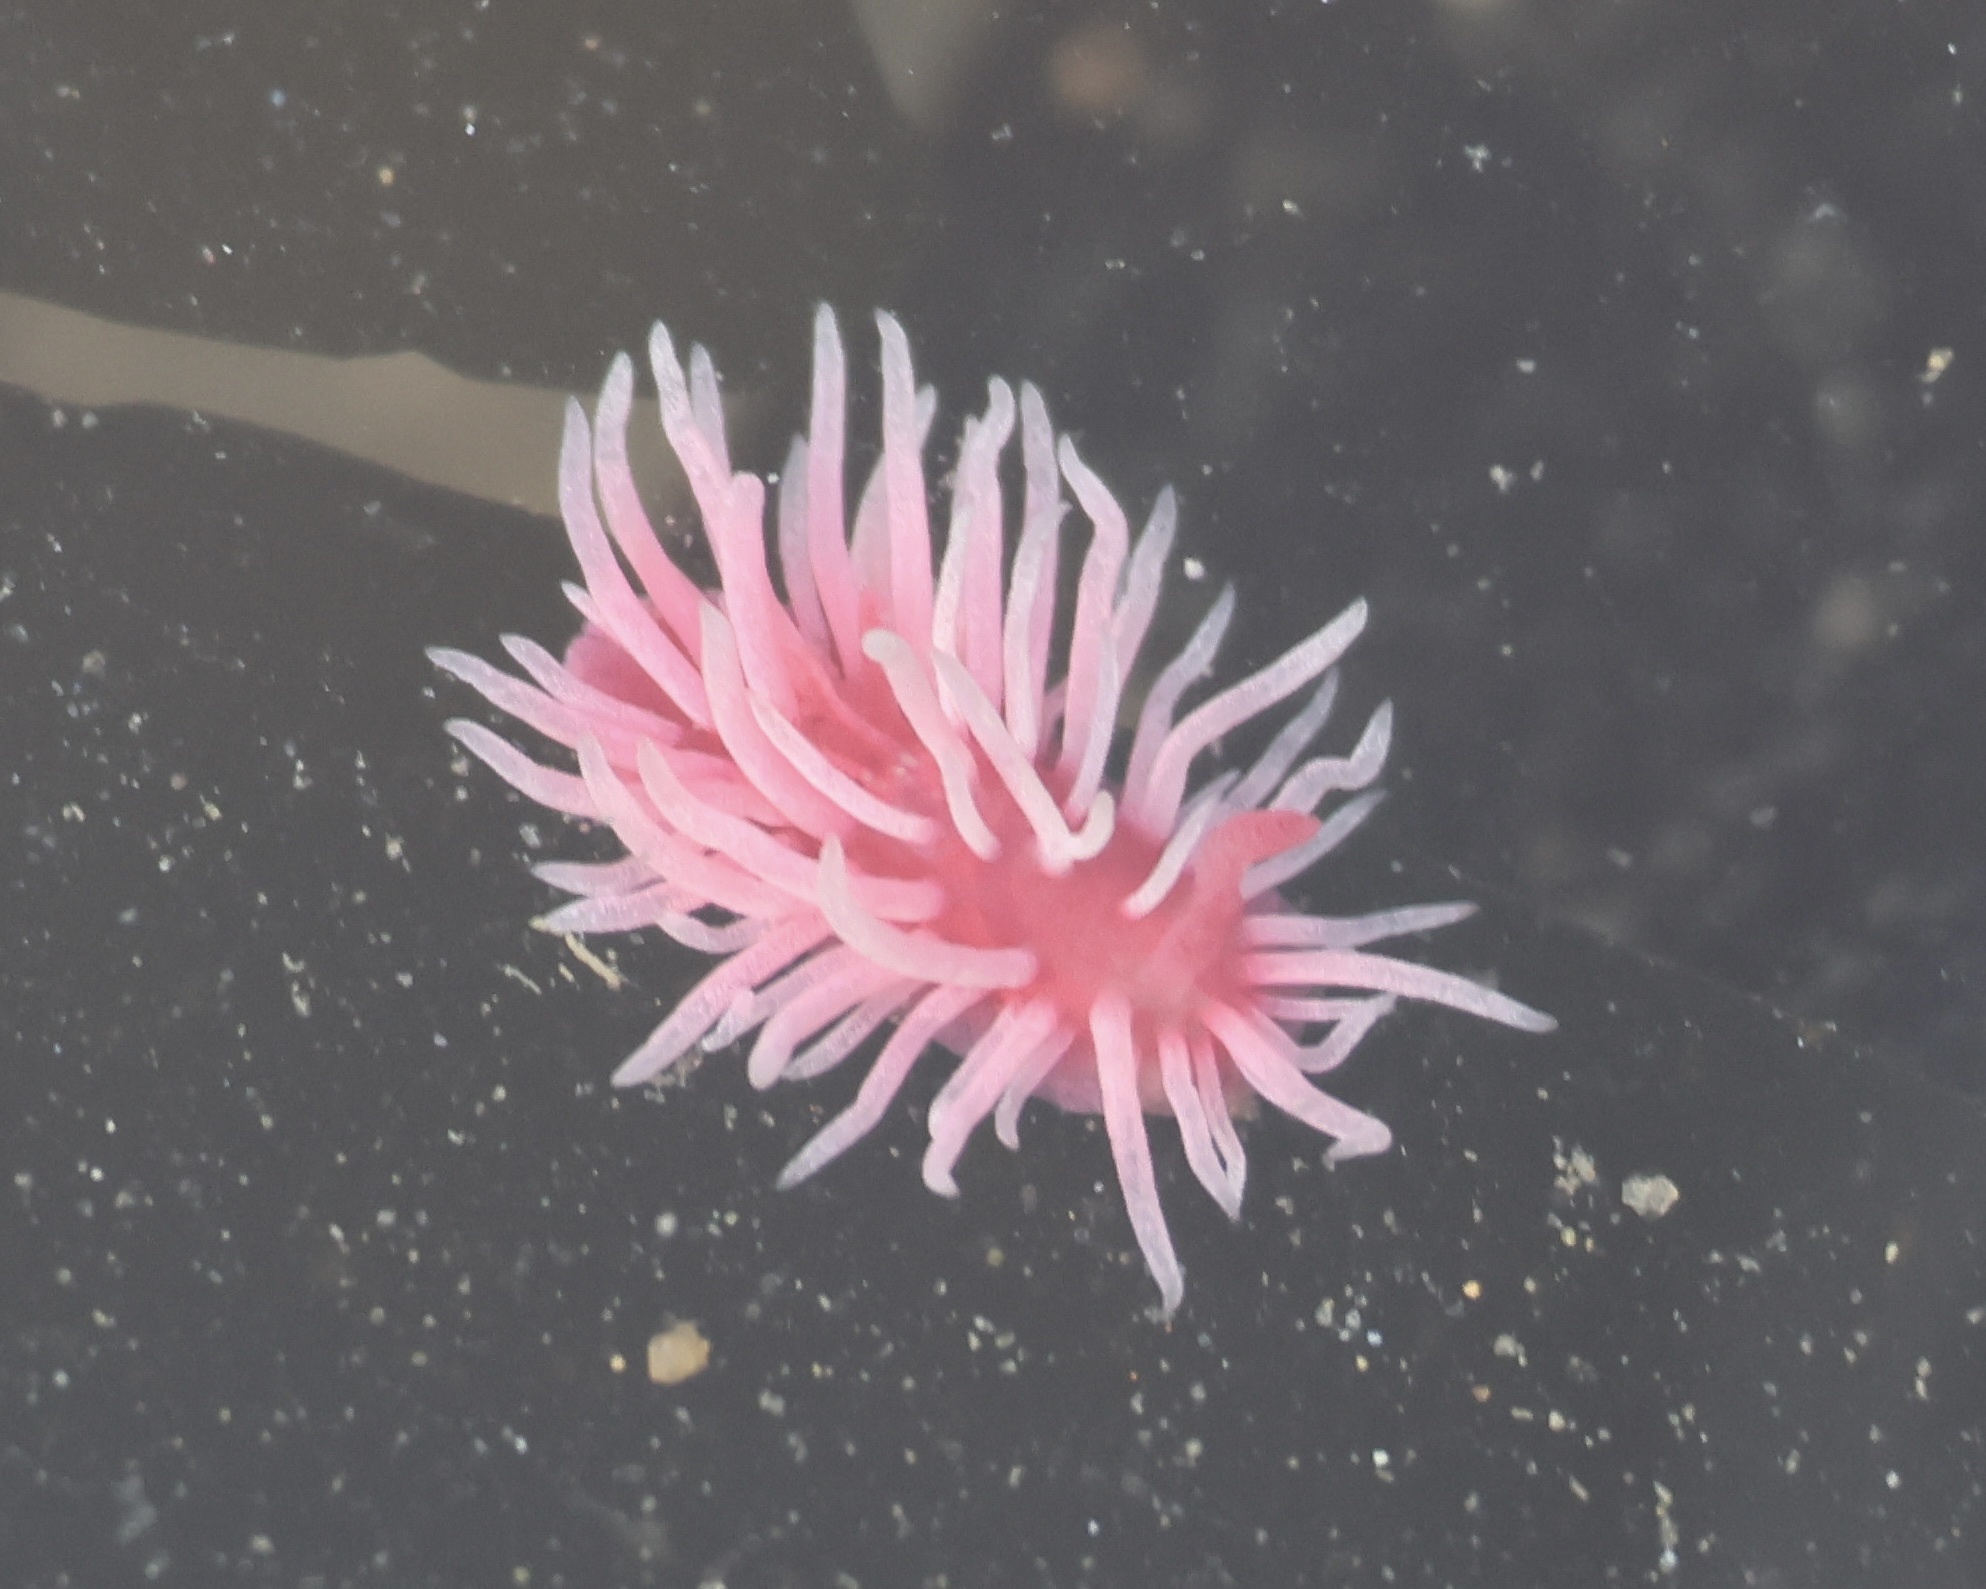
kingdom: Animalia
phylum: Mollusca
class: Gastropoda
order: Nudibranchia
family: Goniodorididae
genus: Okenia
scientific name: Okenia
